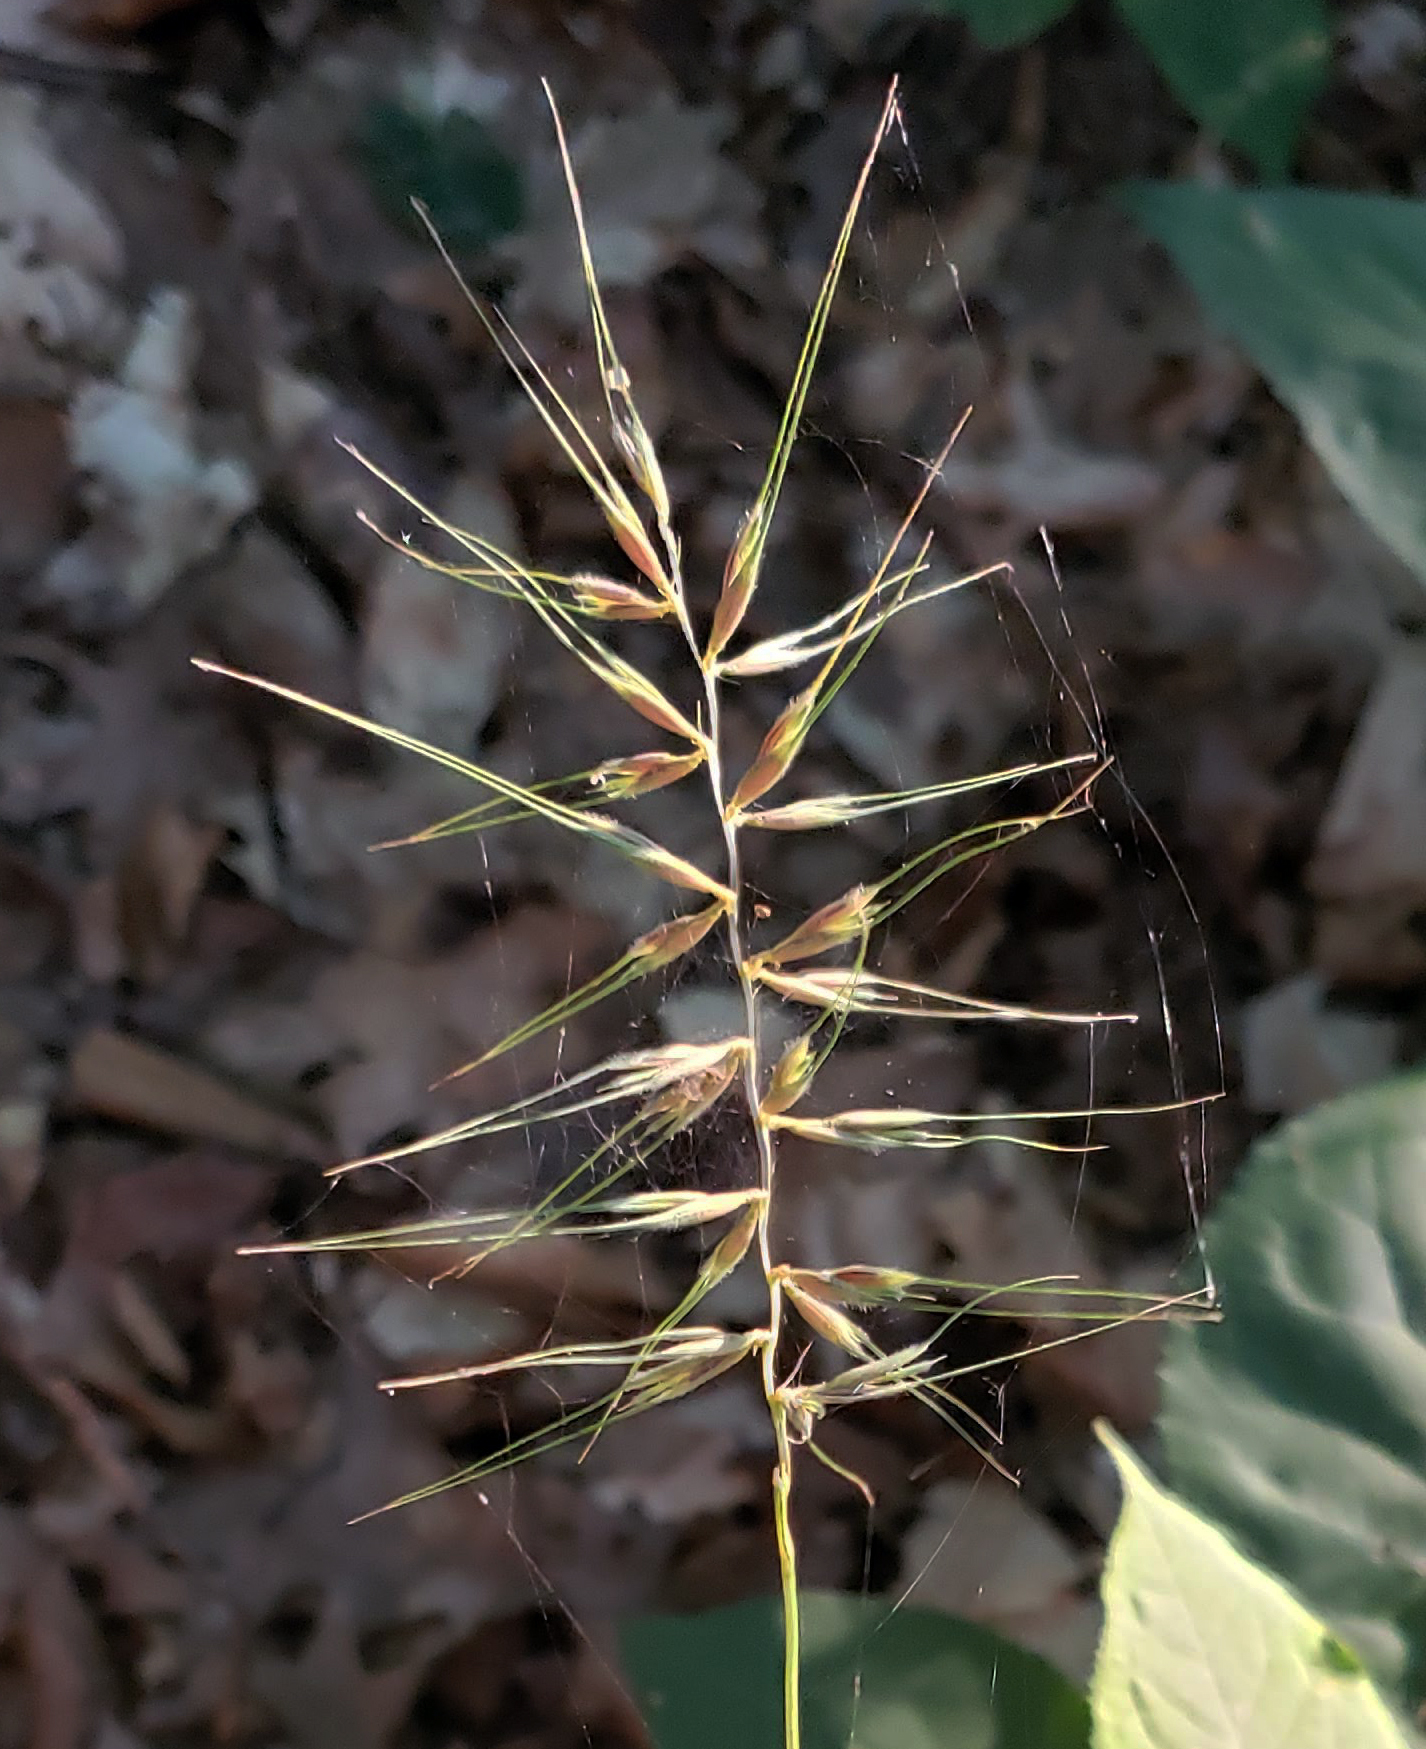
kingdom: Plantae
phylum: Tracheophyta
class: Liliopsida
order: Poales
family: Poaceae
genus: Elymus
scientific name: Elymus hystrix
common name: Bottlebrush grass
